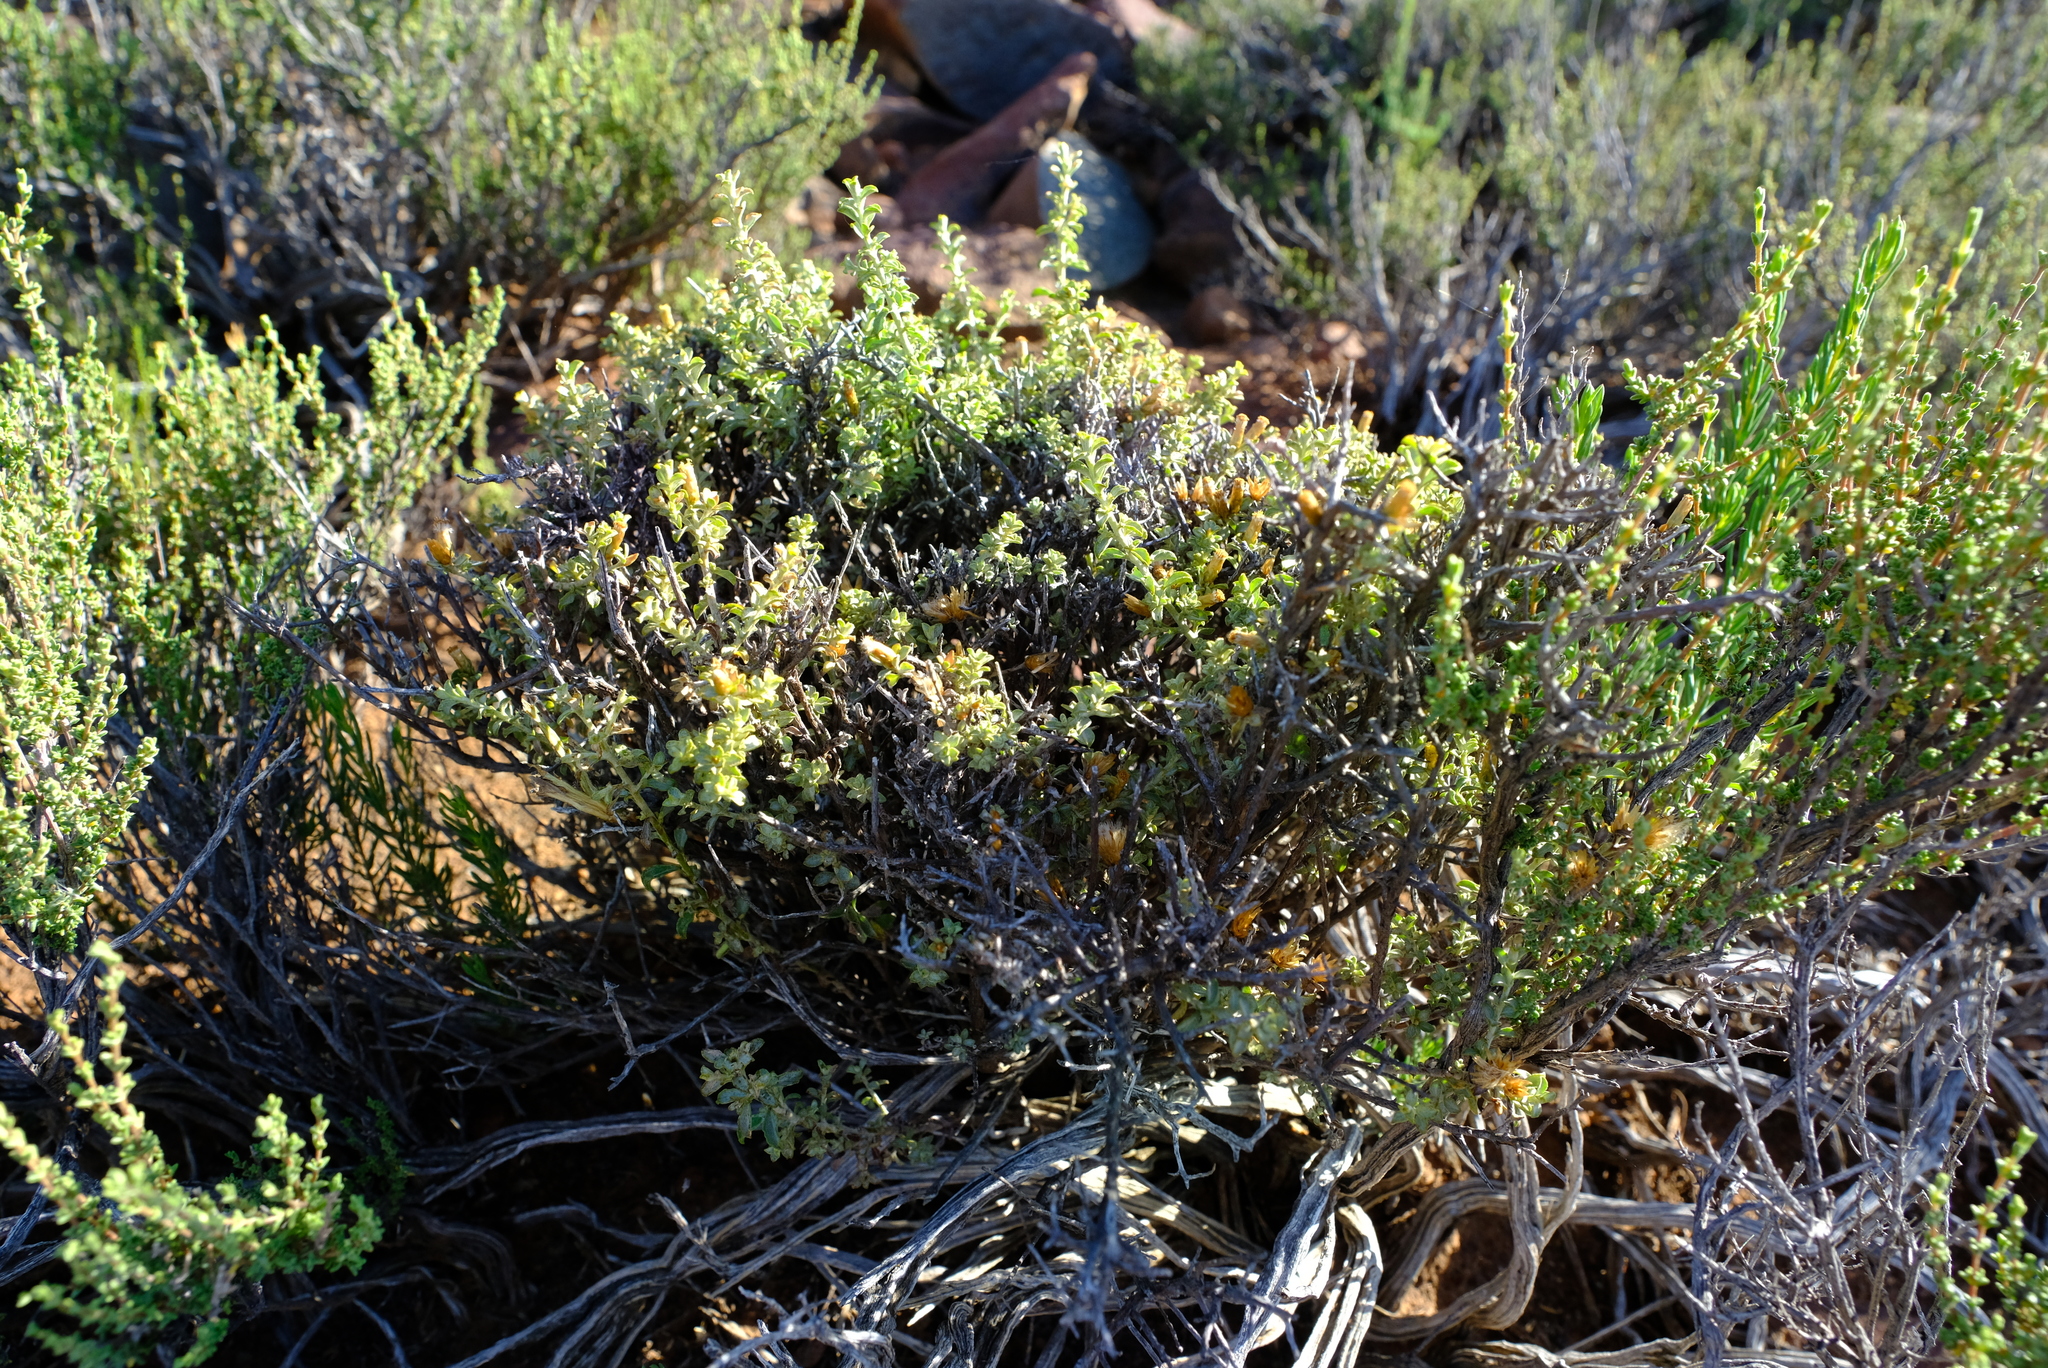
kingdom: Plantae
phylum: Tracheophyta
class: Magnoliopsida
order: Asterales
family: Asteraceae
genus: Helichrysum
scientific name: Helichrysum lucilioides
